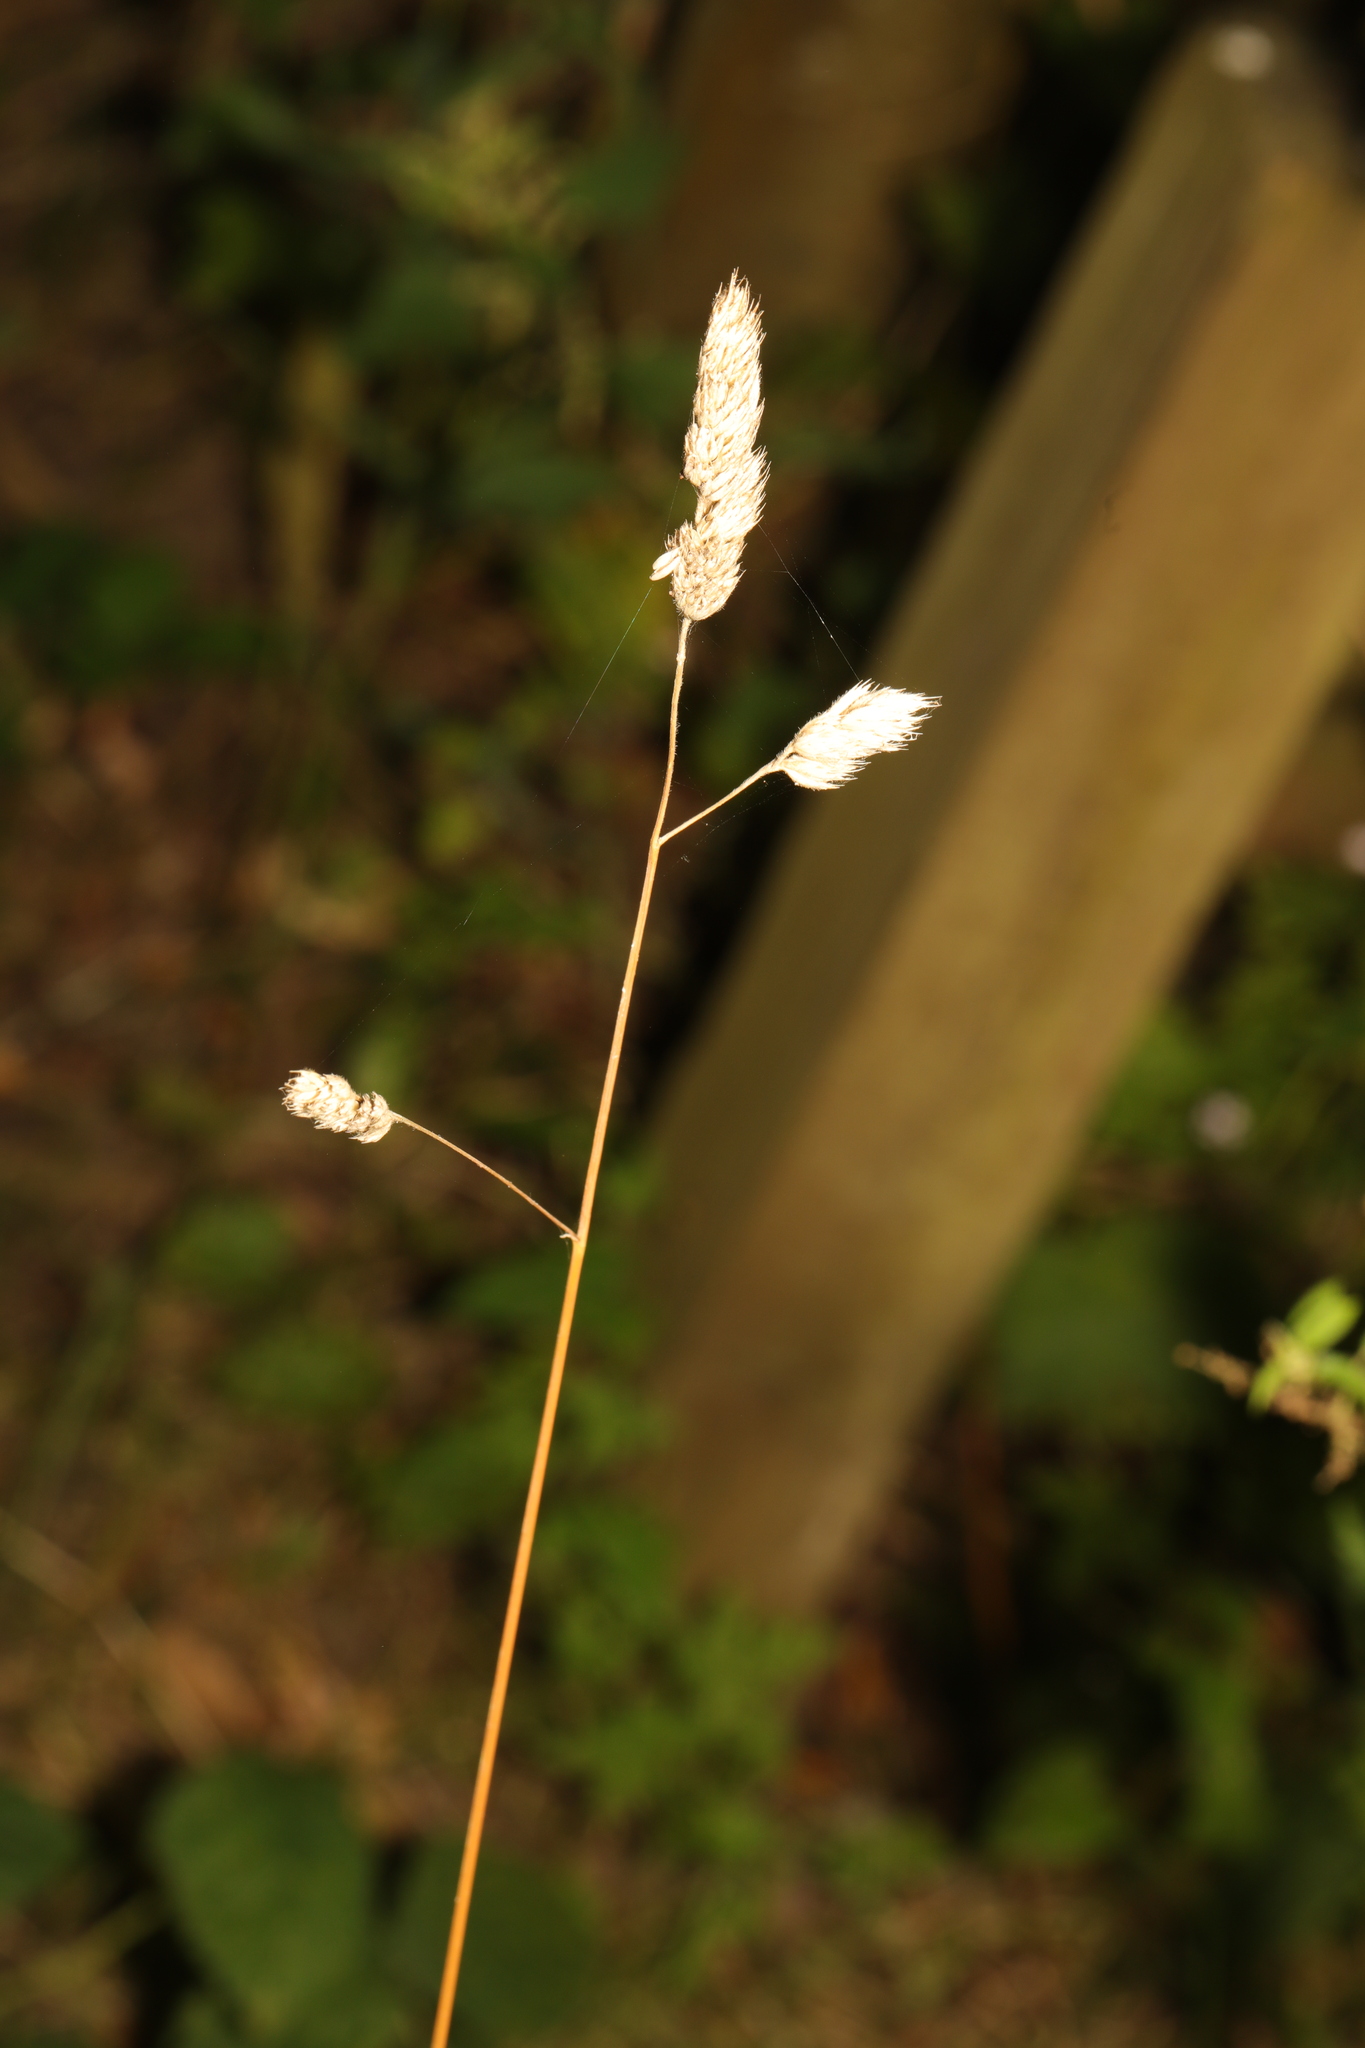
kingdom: Plantae
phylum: Tracheophyta
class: Liliopsida
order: Poales
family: Poaceae
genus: Dactylis
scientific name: Dactylis glomerata
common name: Orchardgrass
